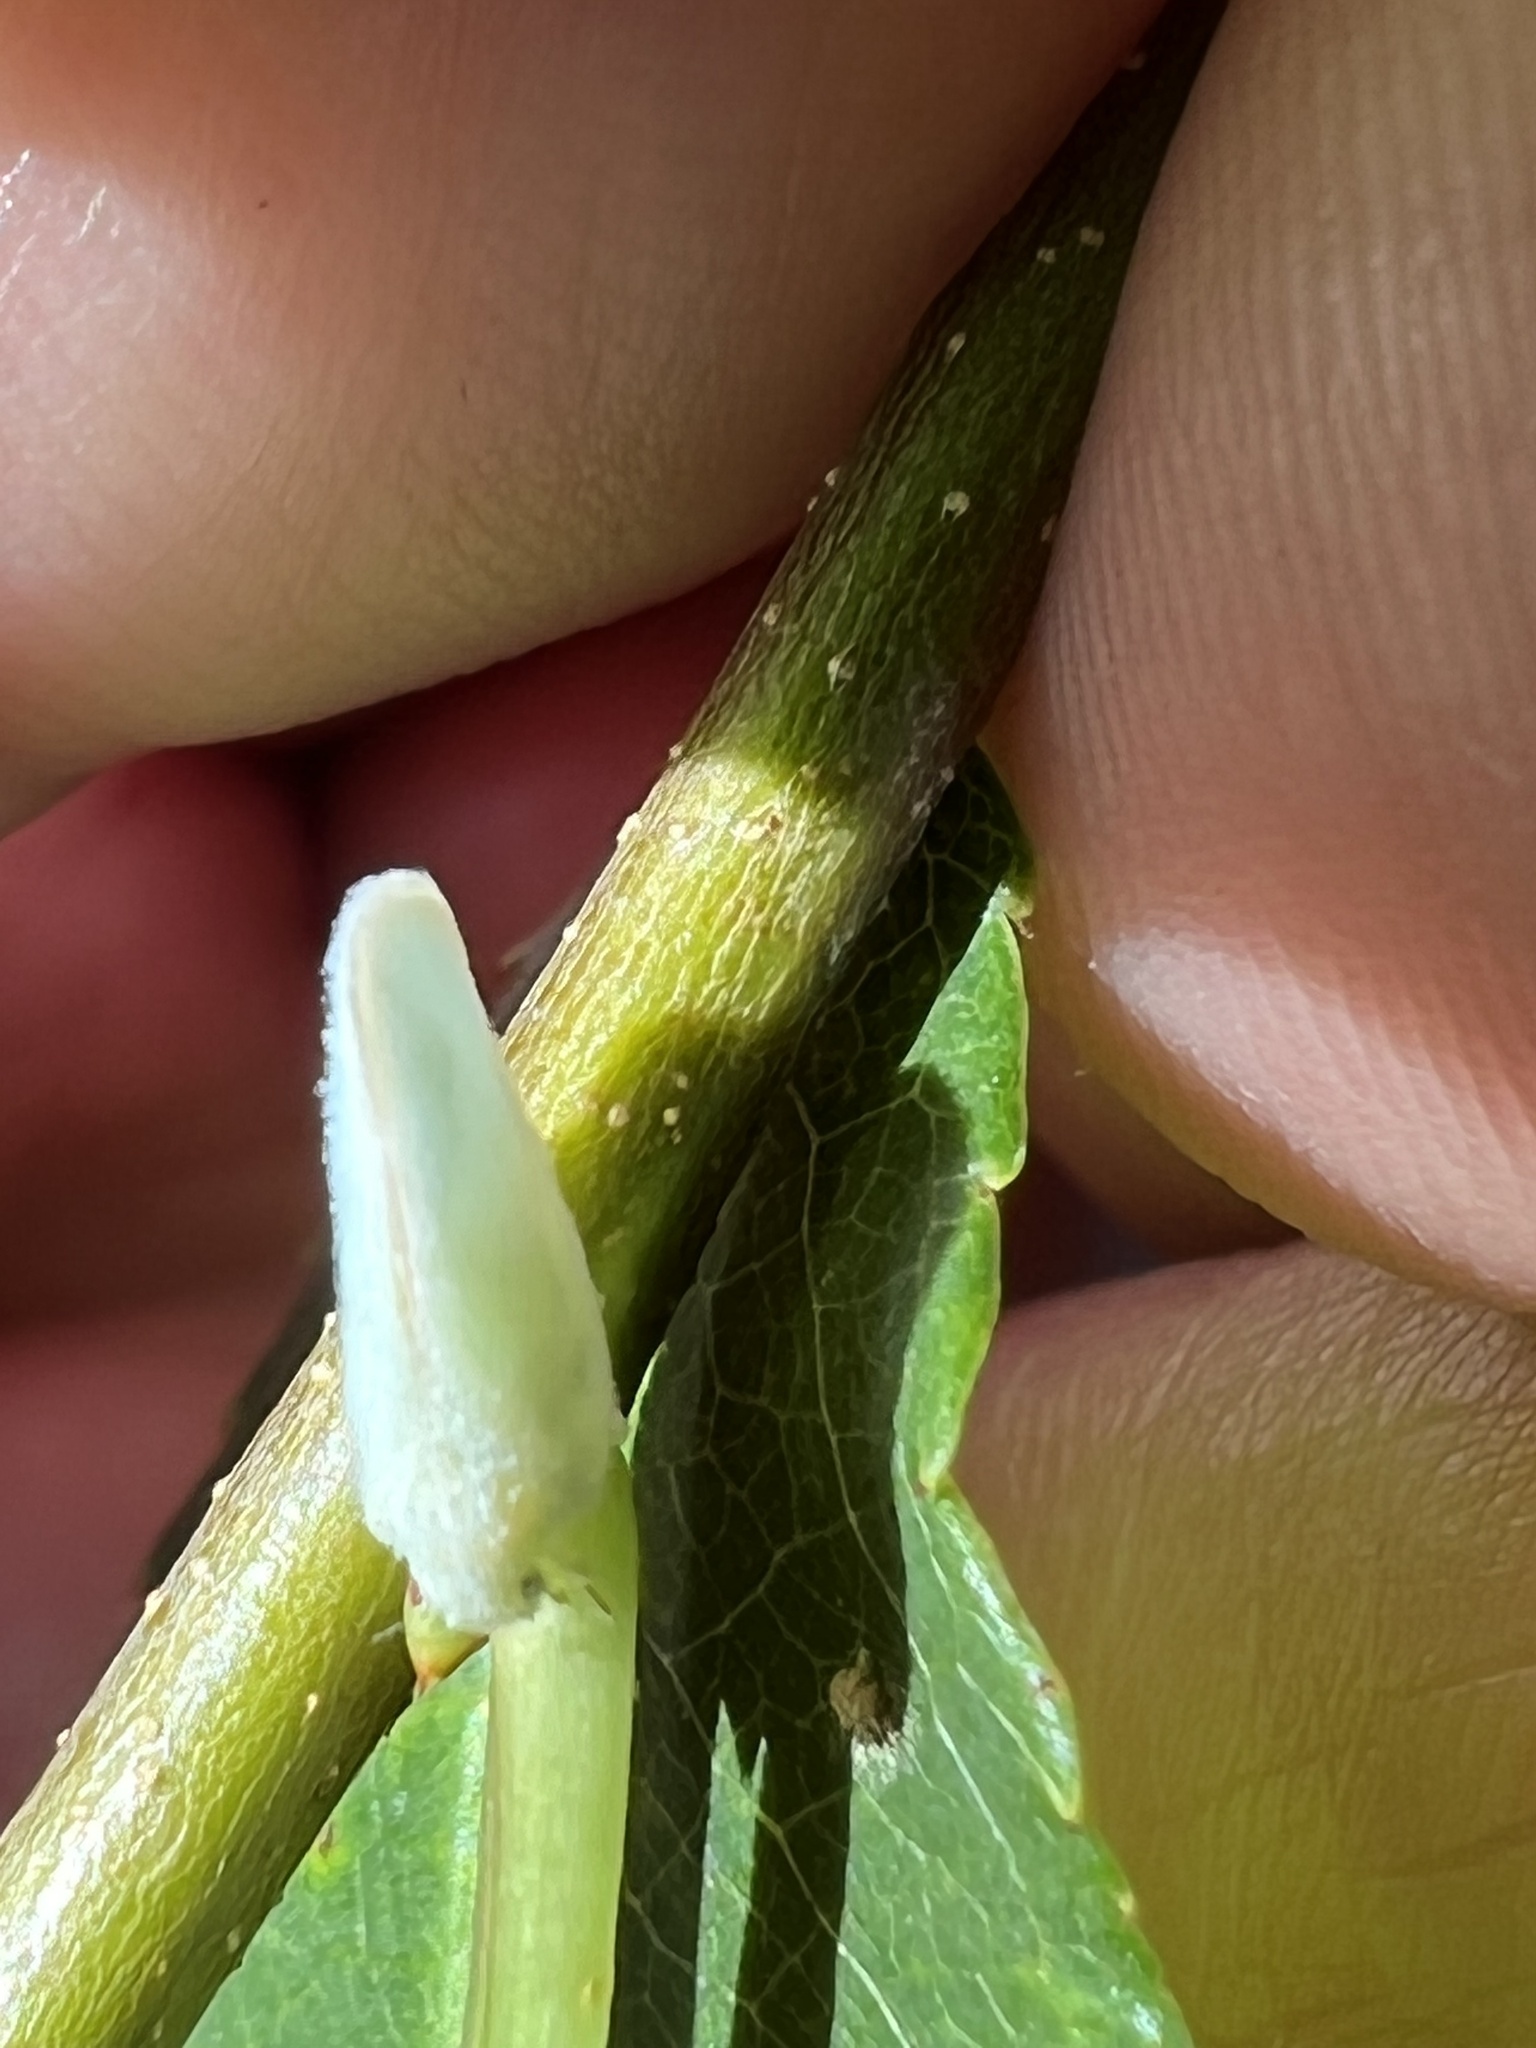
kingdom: Animalia
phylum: Arthropoda
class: Insecta
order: Hemiptera
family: Flatidae
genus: Ormenoides
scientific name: Ormenoides venusta
